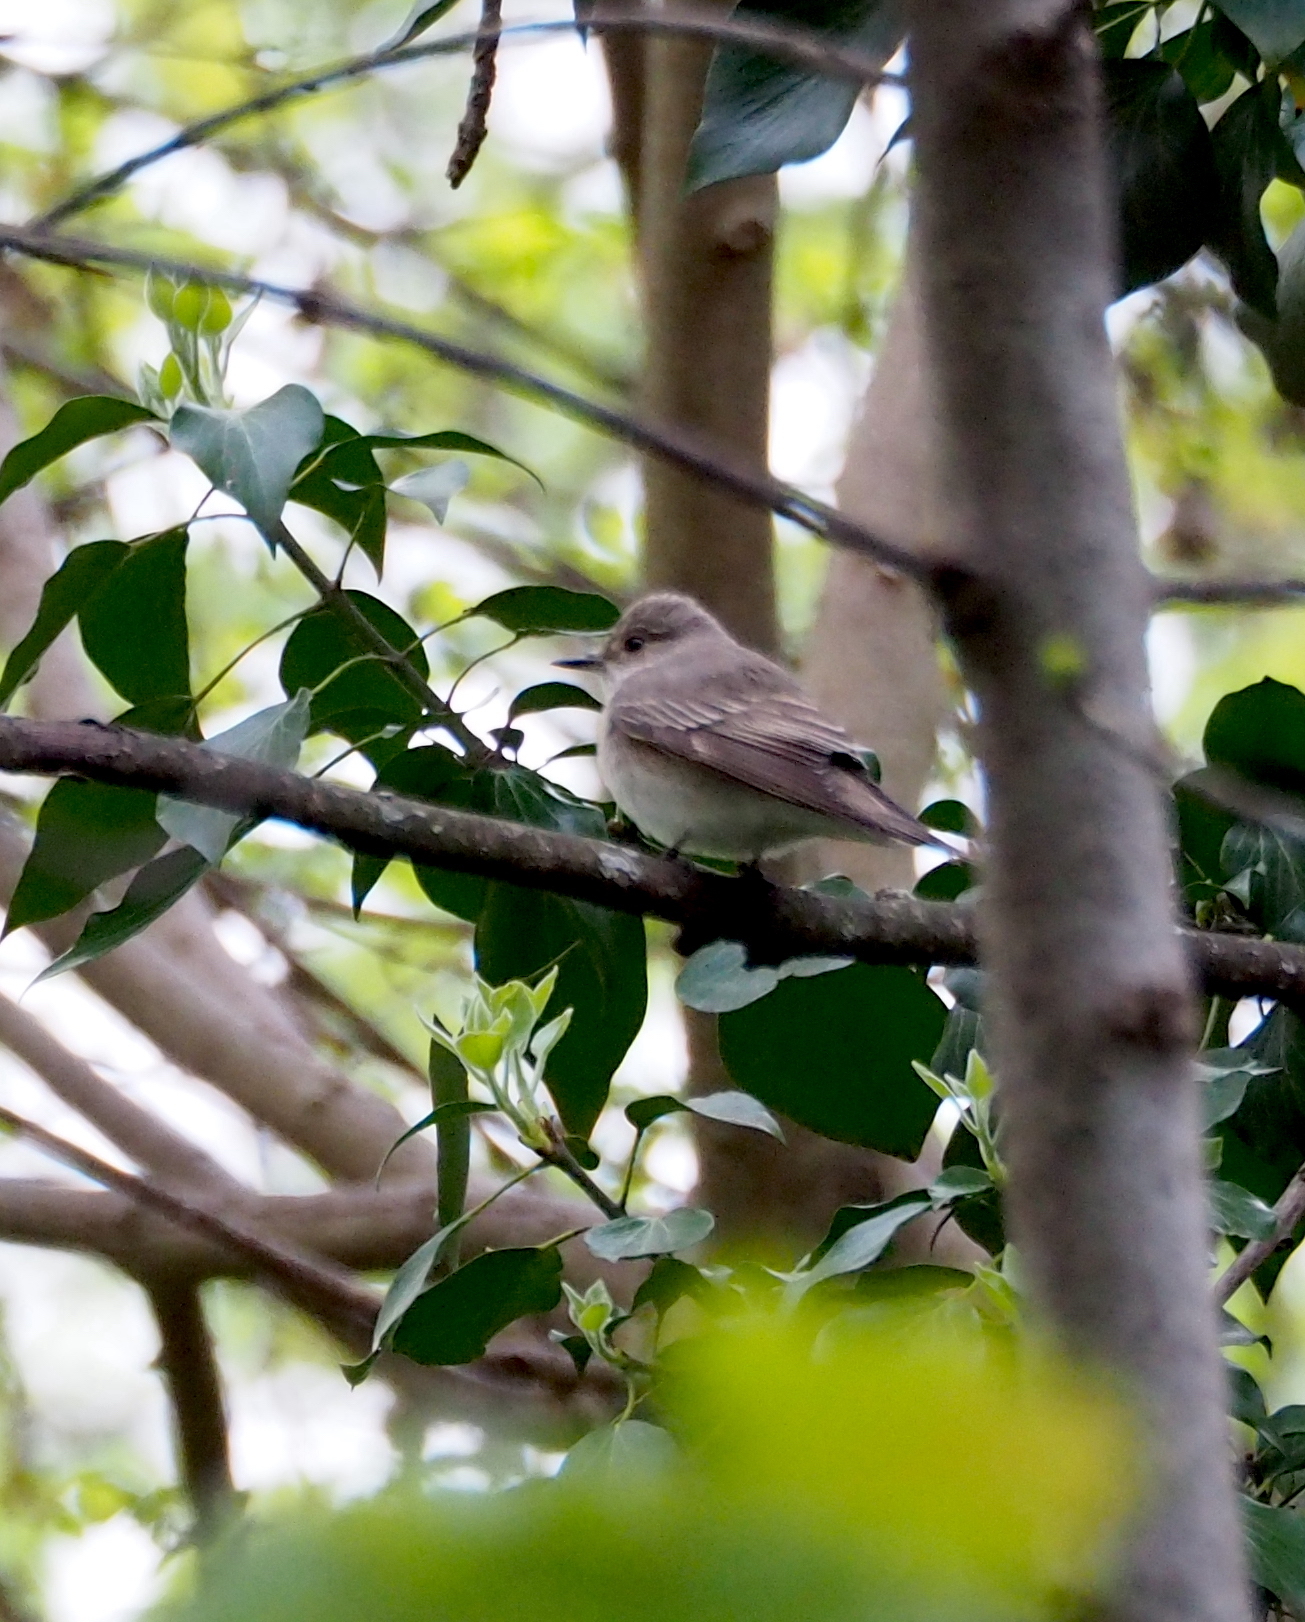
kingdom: Animalia
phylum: Chordata
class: Aves
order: Passeriformes
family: Muscicapidae
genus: Muscicapa
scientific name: Muscicapa striata
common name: Spotted flycatcher
